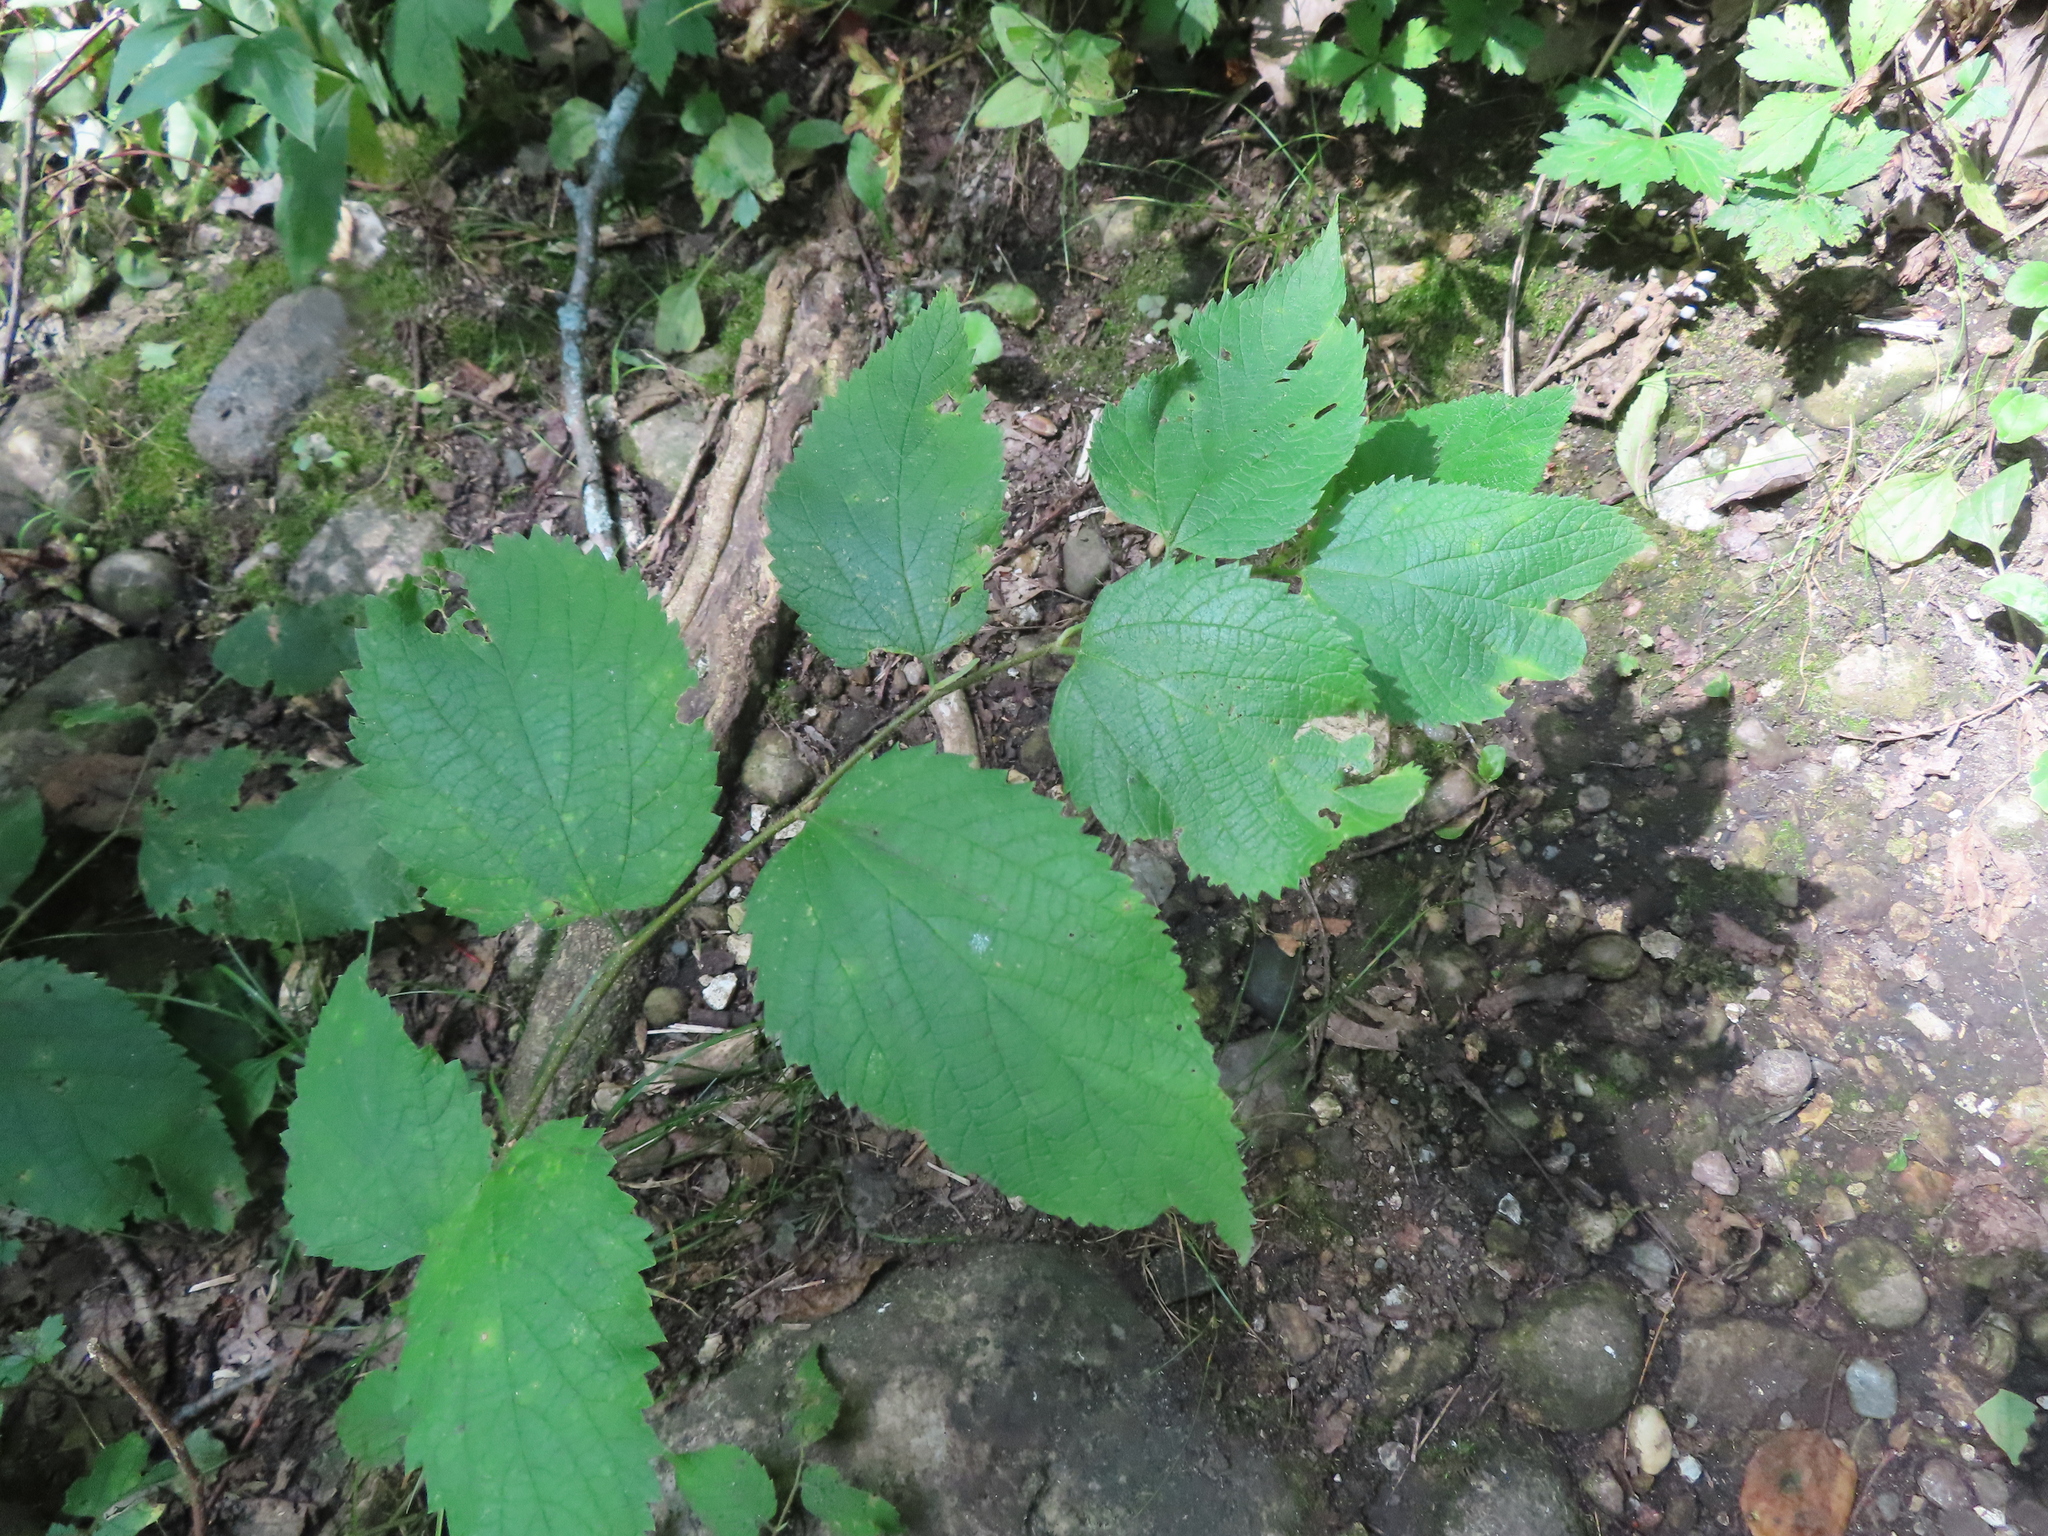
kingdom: Plantae
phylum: Tracheophyta
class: Magnoliopsida
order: Rosales
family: Cannabaceae
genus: Celtis
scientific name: Celtis occidentalis
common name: Common hackberry
